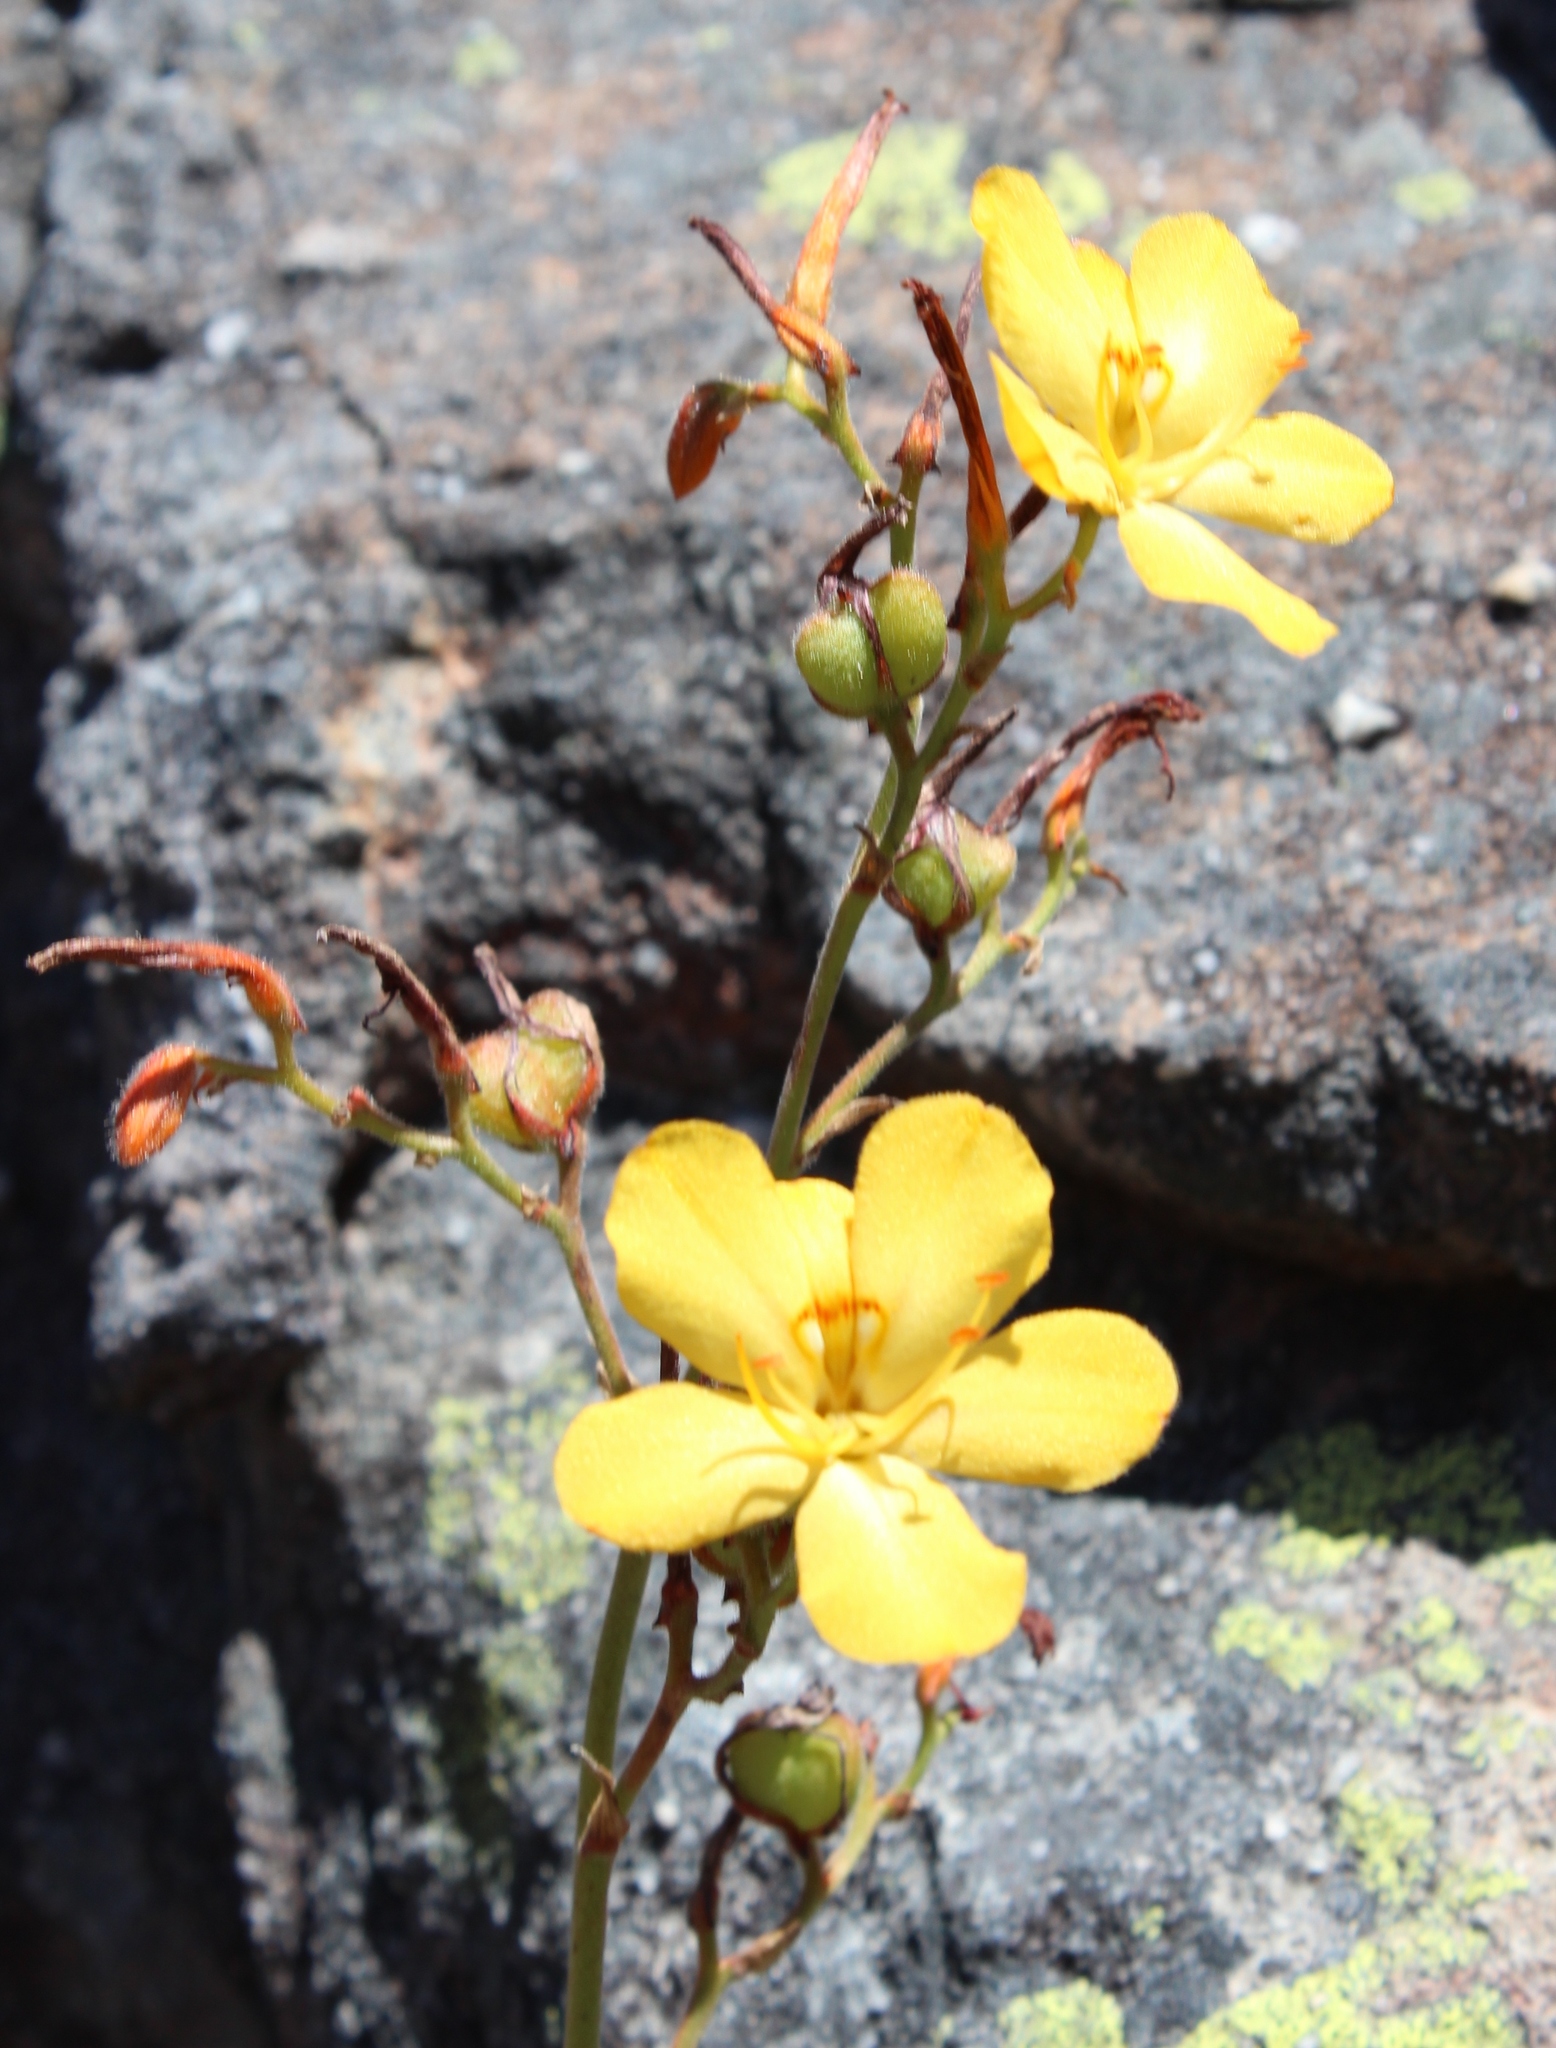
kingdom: Plantae
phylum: Tracheophyta
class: Liliopsida
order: Commelinales
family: Haemodoraceae
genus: Wachendorfia
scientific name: Wachendorfia paniculata
